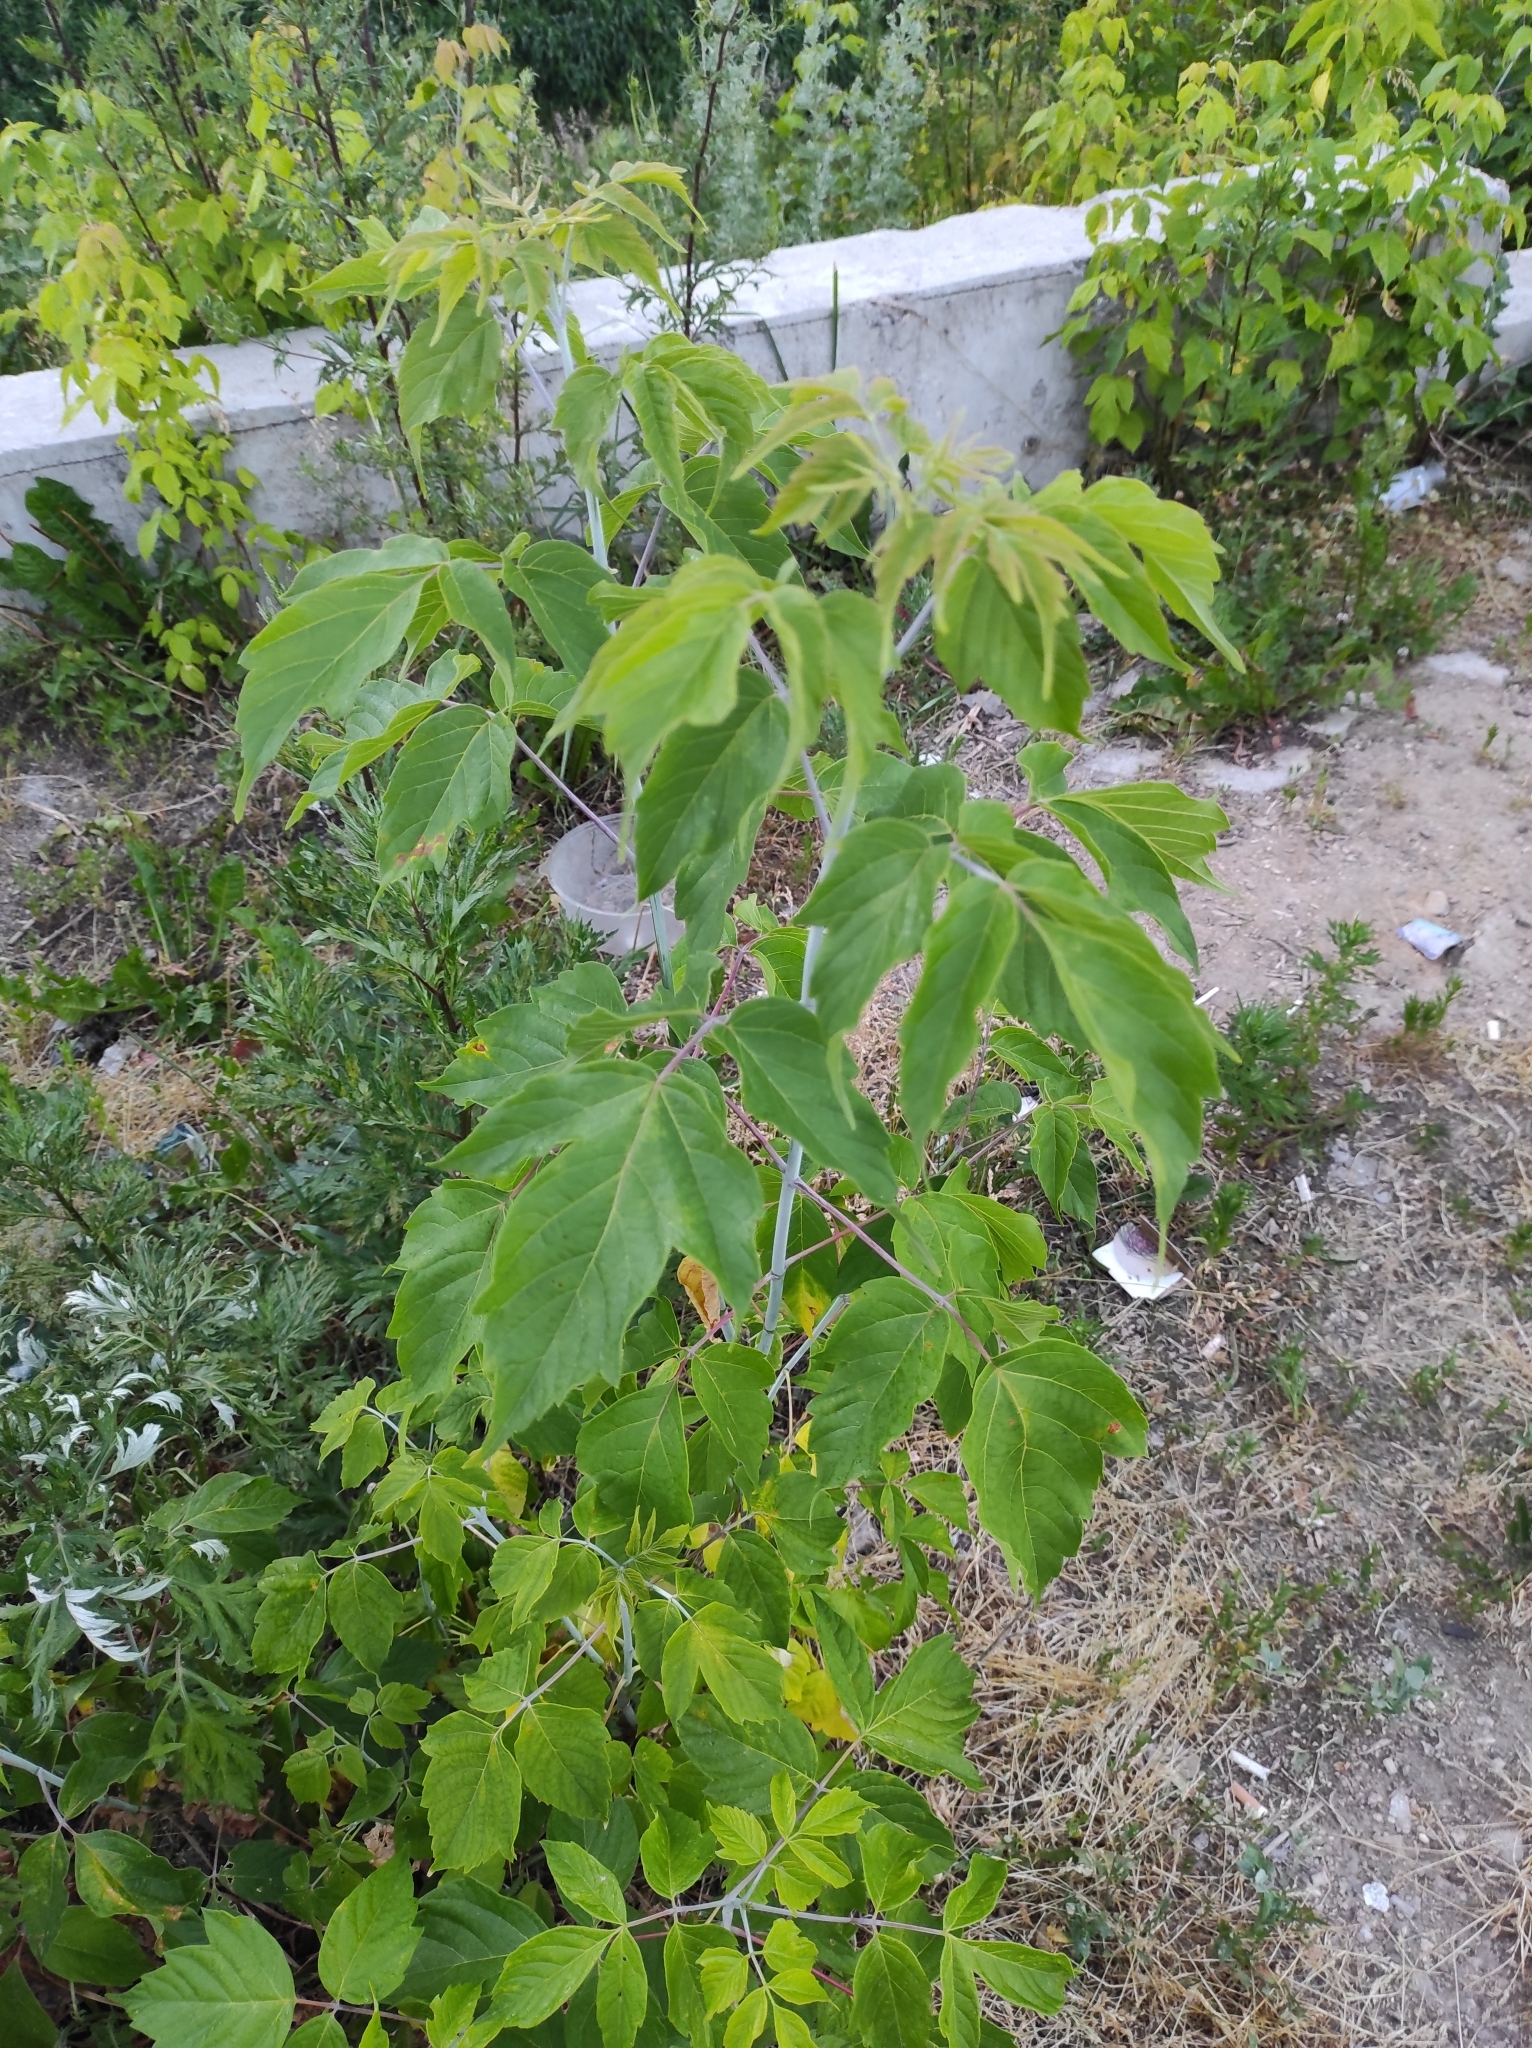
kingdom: Plantae
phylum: Tracheophyta
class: Magnoliopsida
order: Sapindales
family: Sapindaceae
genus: Acer
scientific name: Acer negundo
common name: Ashleaf maple
